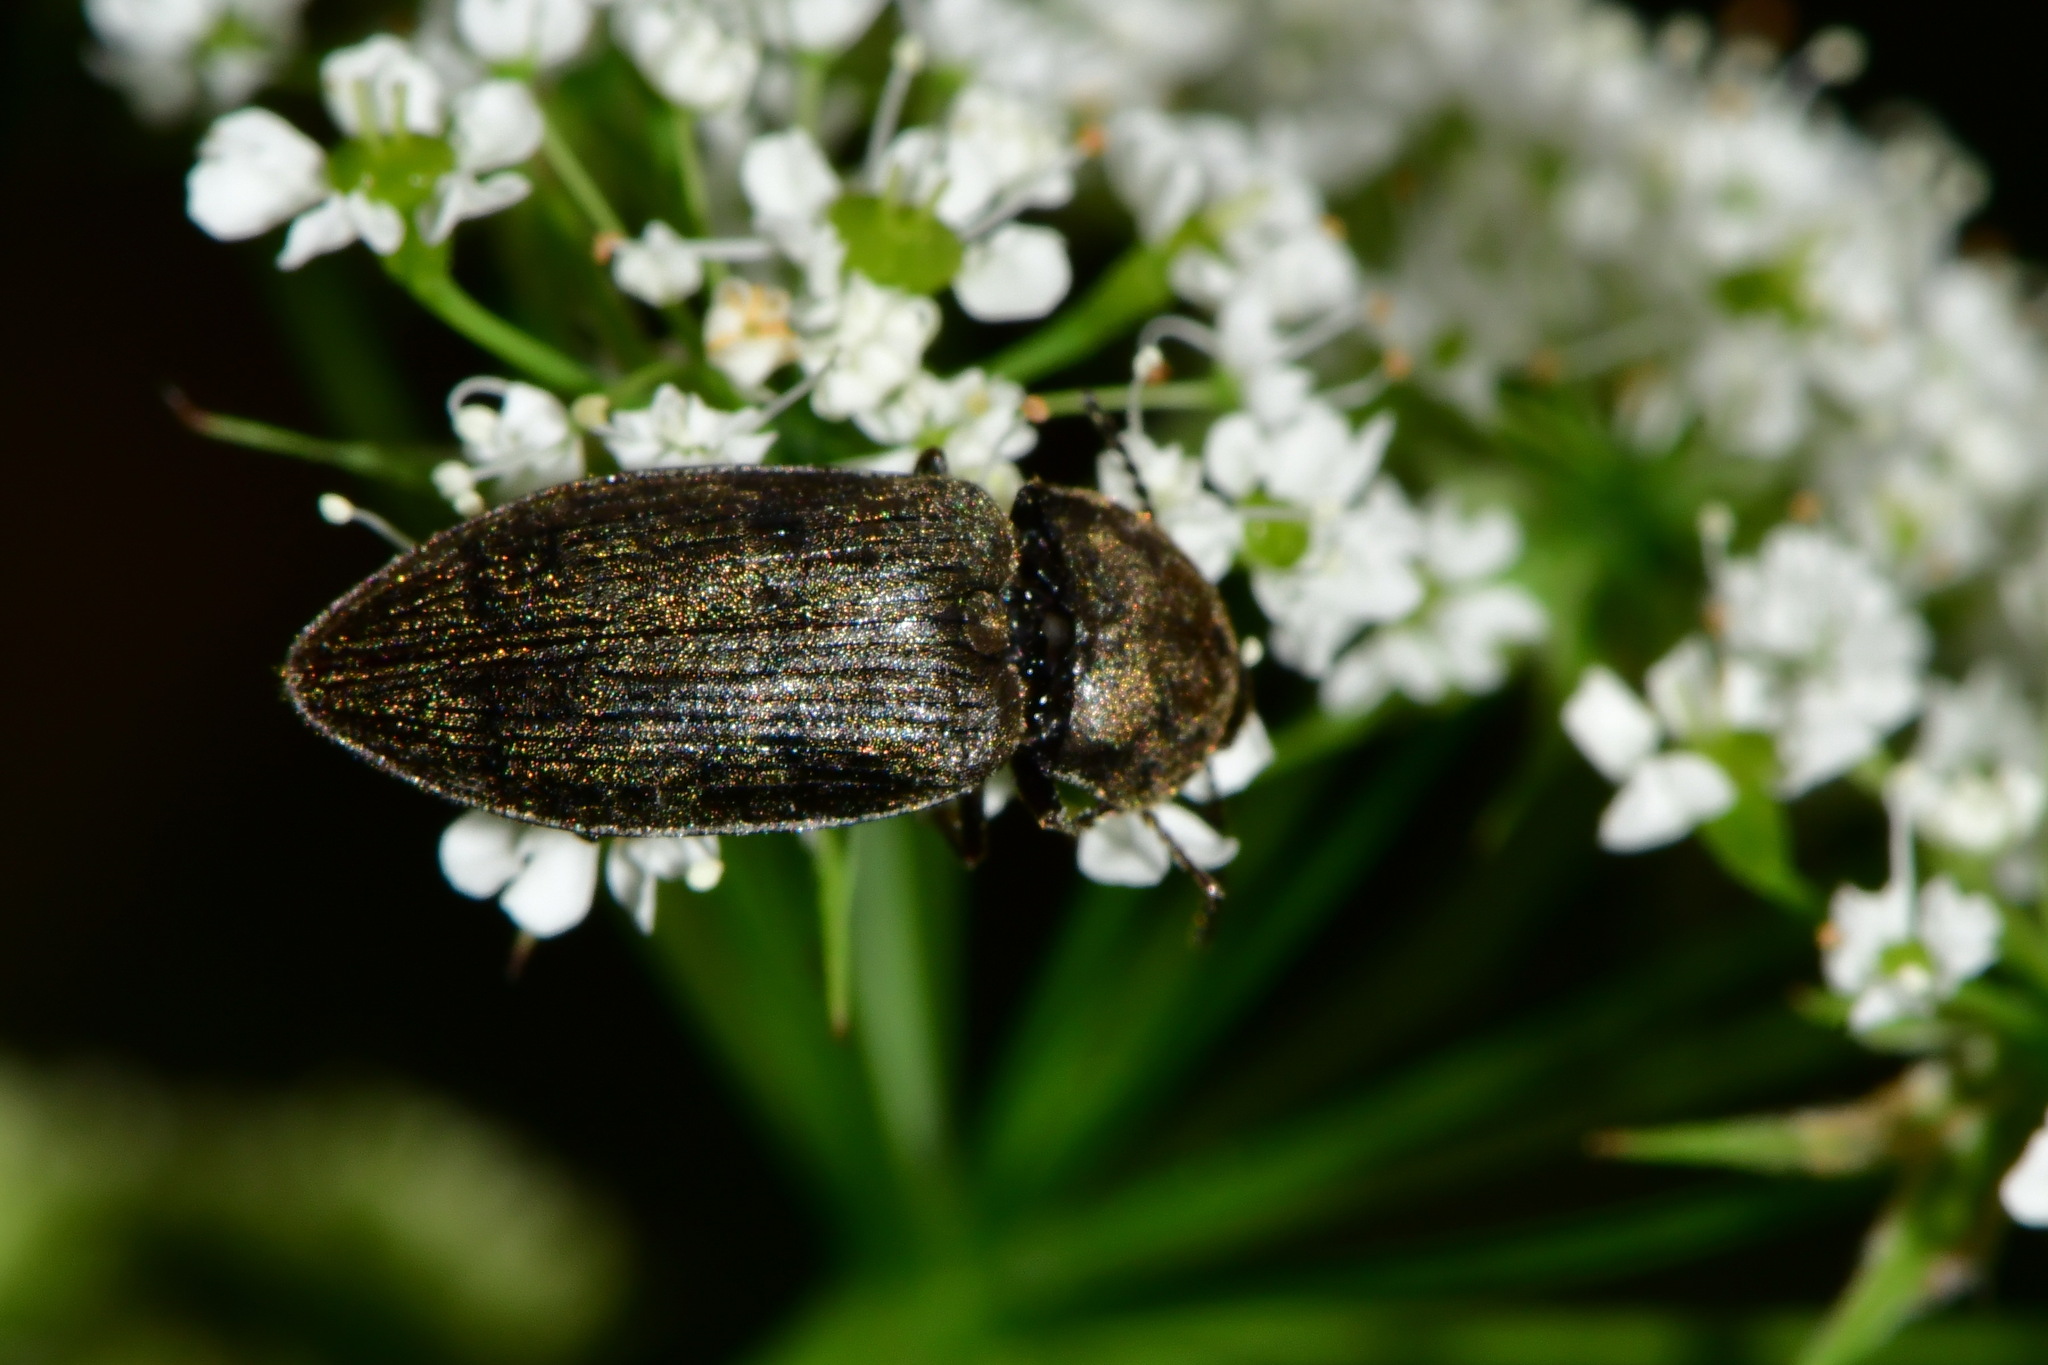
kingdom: Animalia
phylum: Arthropoda
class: Insecta
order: Coleoptera
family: Elateridae
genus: Prosternon
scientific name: Prosternon tessellatum
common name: Chequered click beetle
